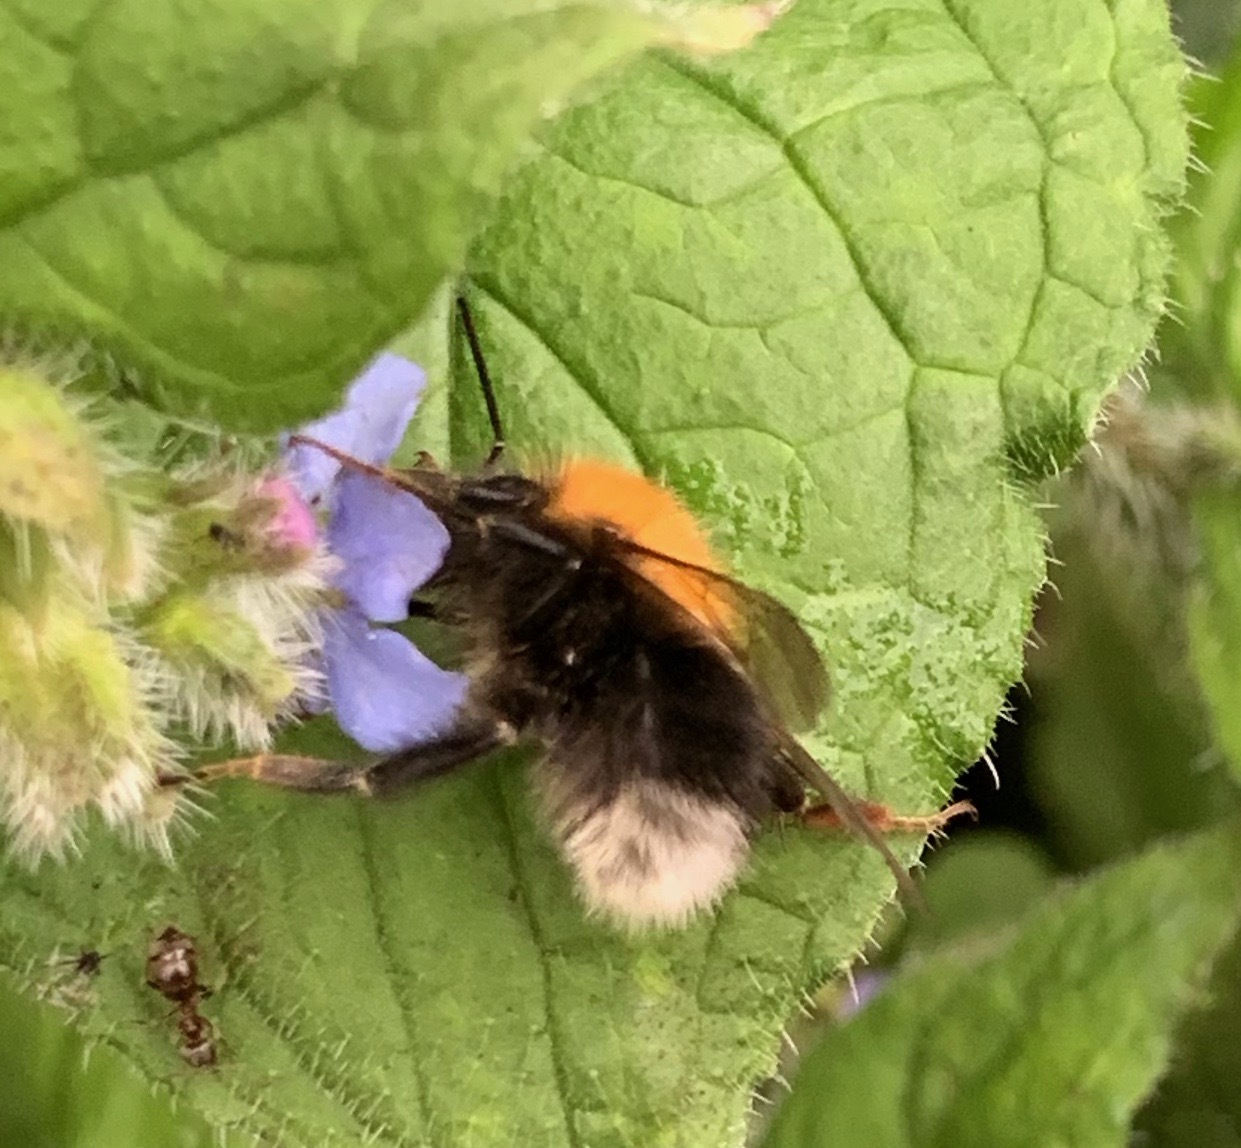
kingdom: Animalia
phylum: Arthropoda
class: Insecta
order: Hymenoptera
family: Apidae
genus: Bombus
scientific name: Bombus hypnorum
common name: New garden bumblebee
